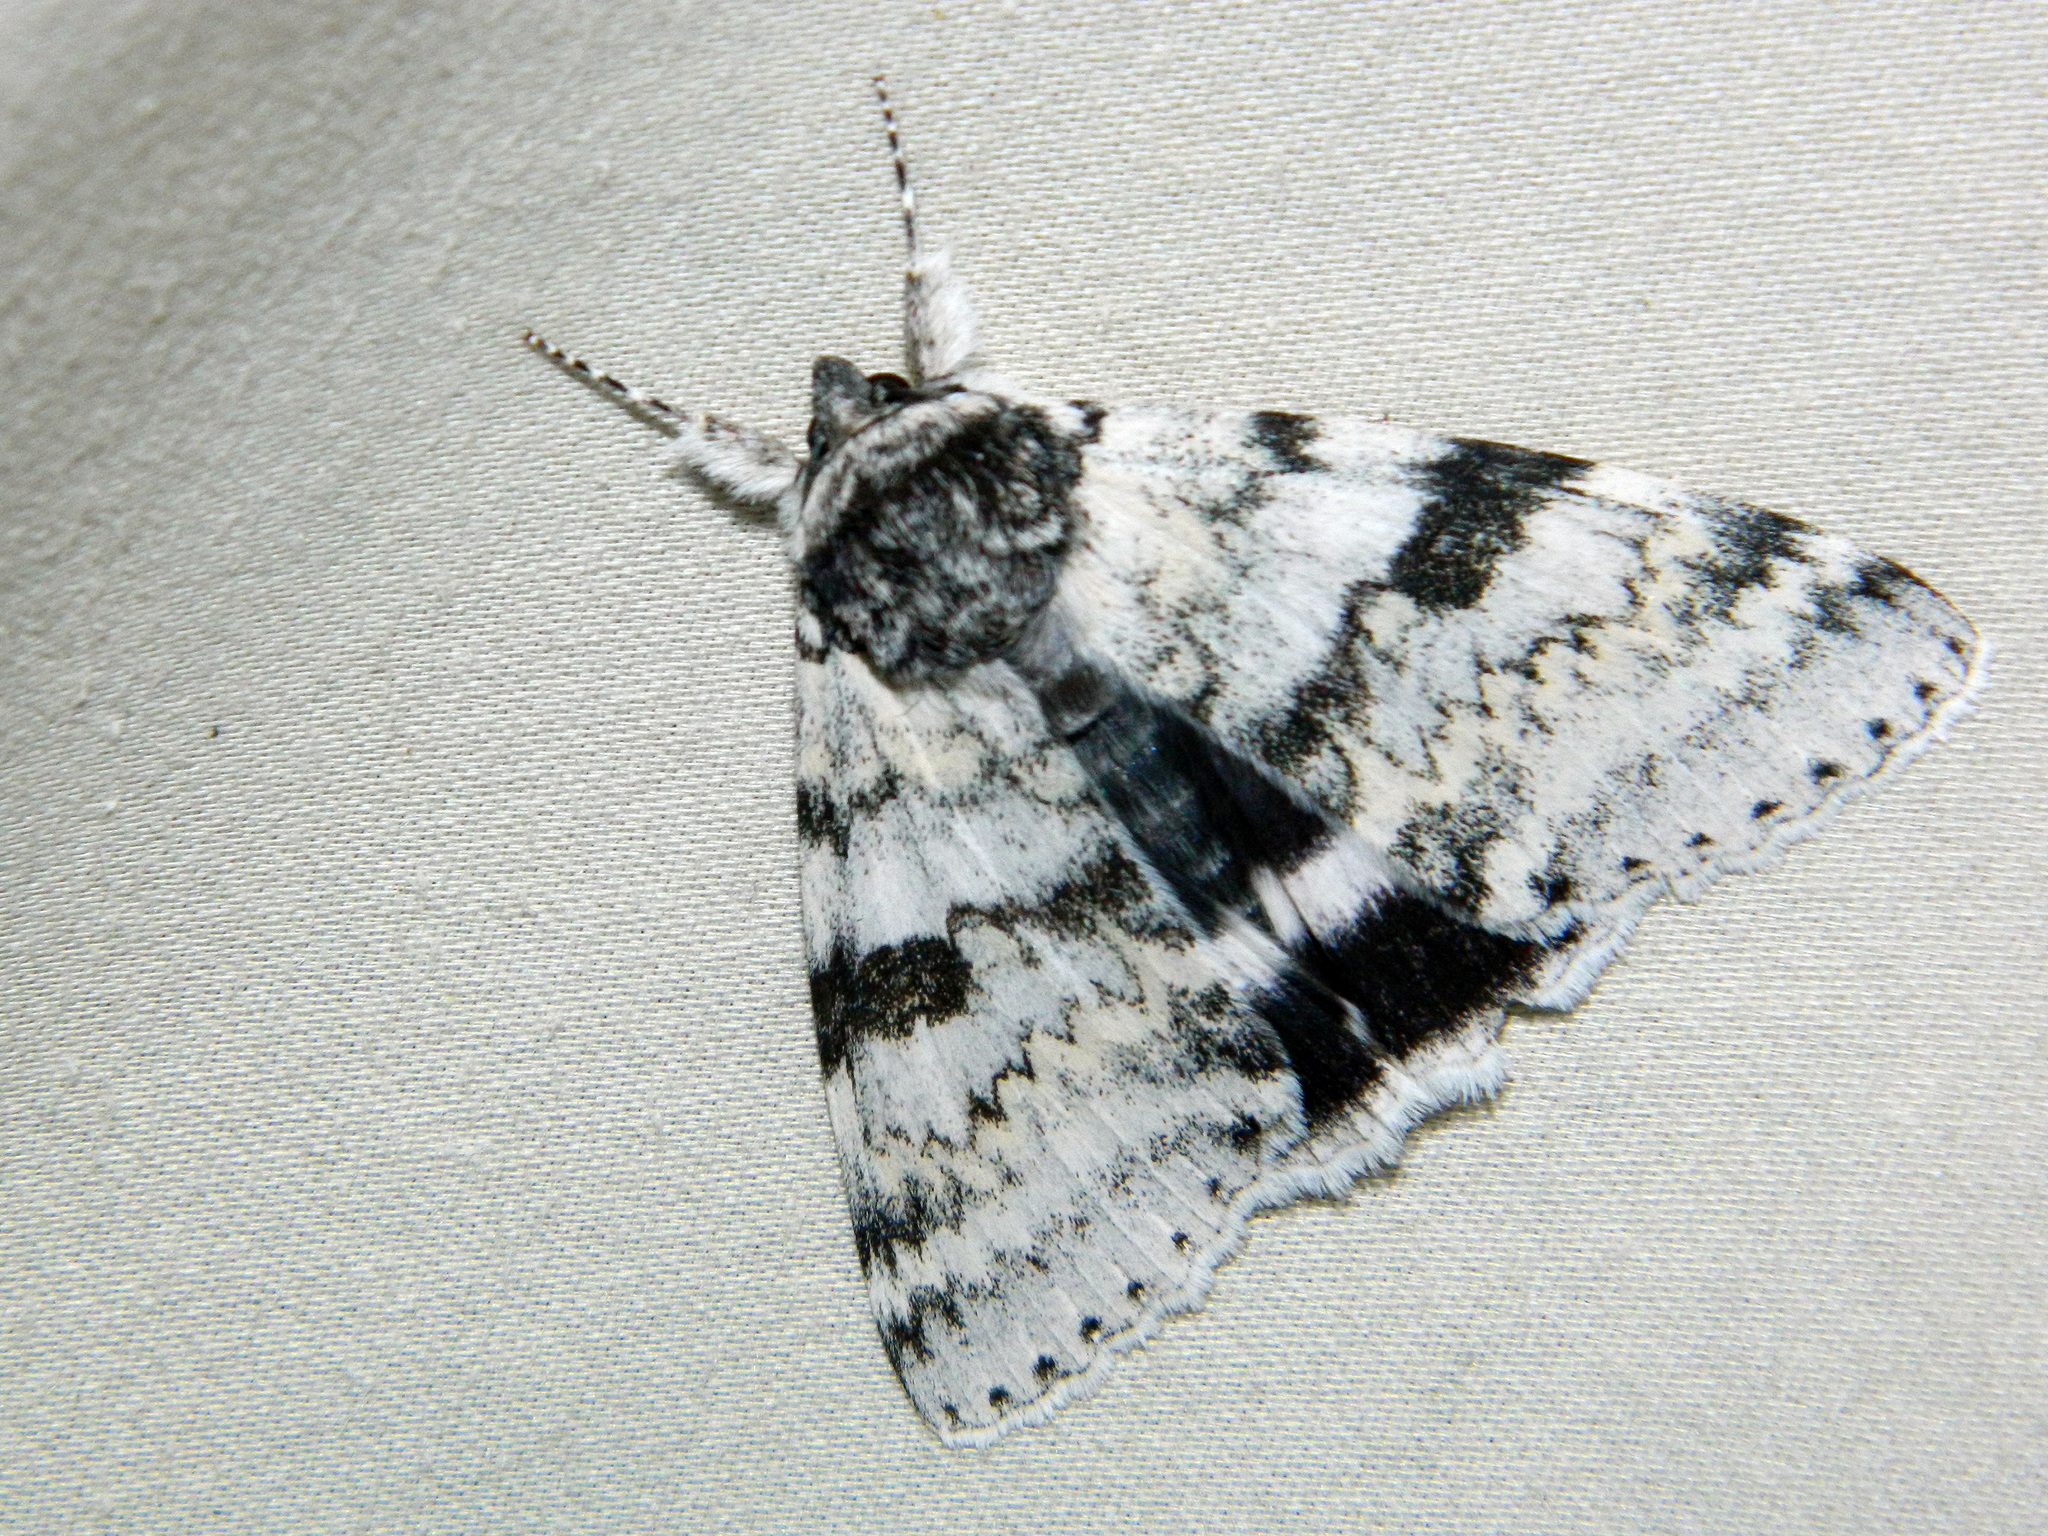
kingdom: Animalia
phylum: Arthropoda
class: Insecta
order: Lepidoptera
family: Erebidae
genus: Catocala
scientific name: Catocala relicta
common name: White underwing
